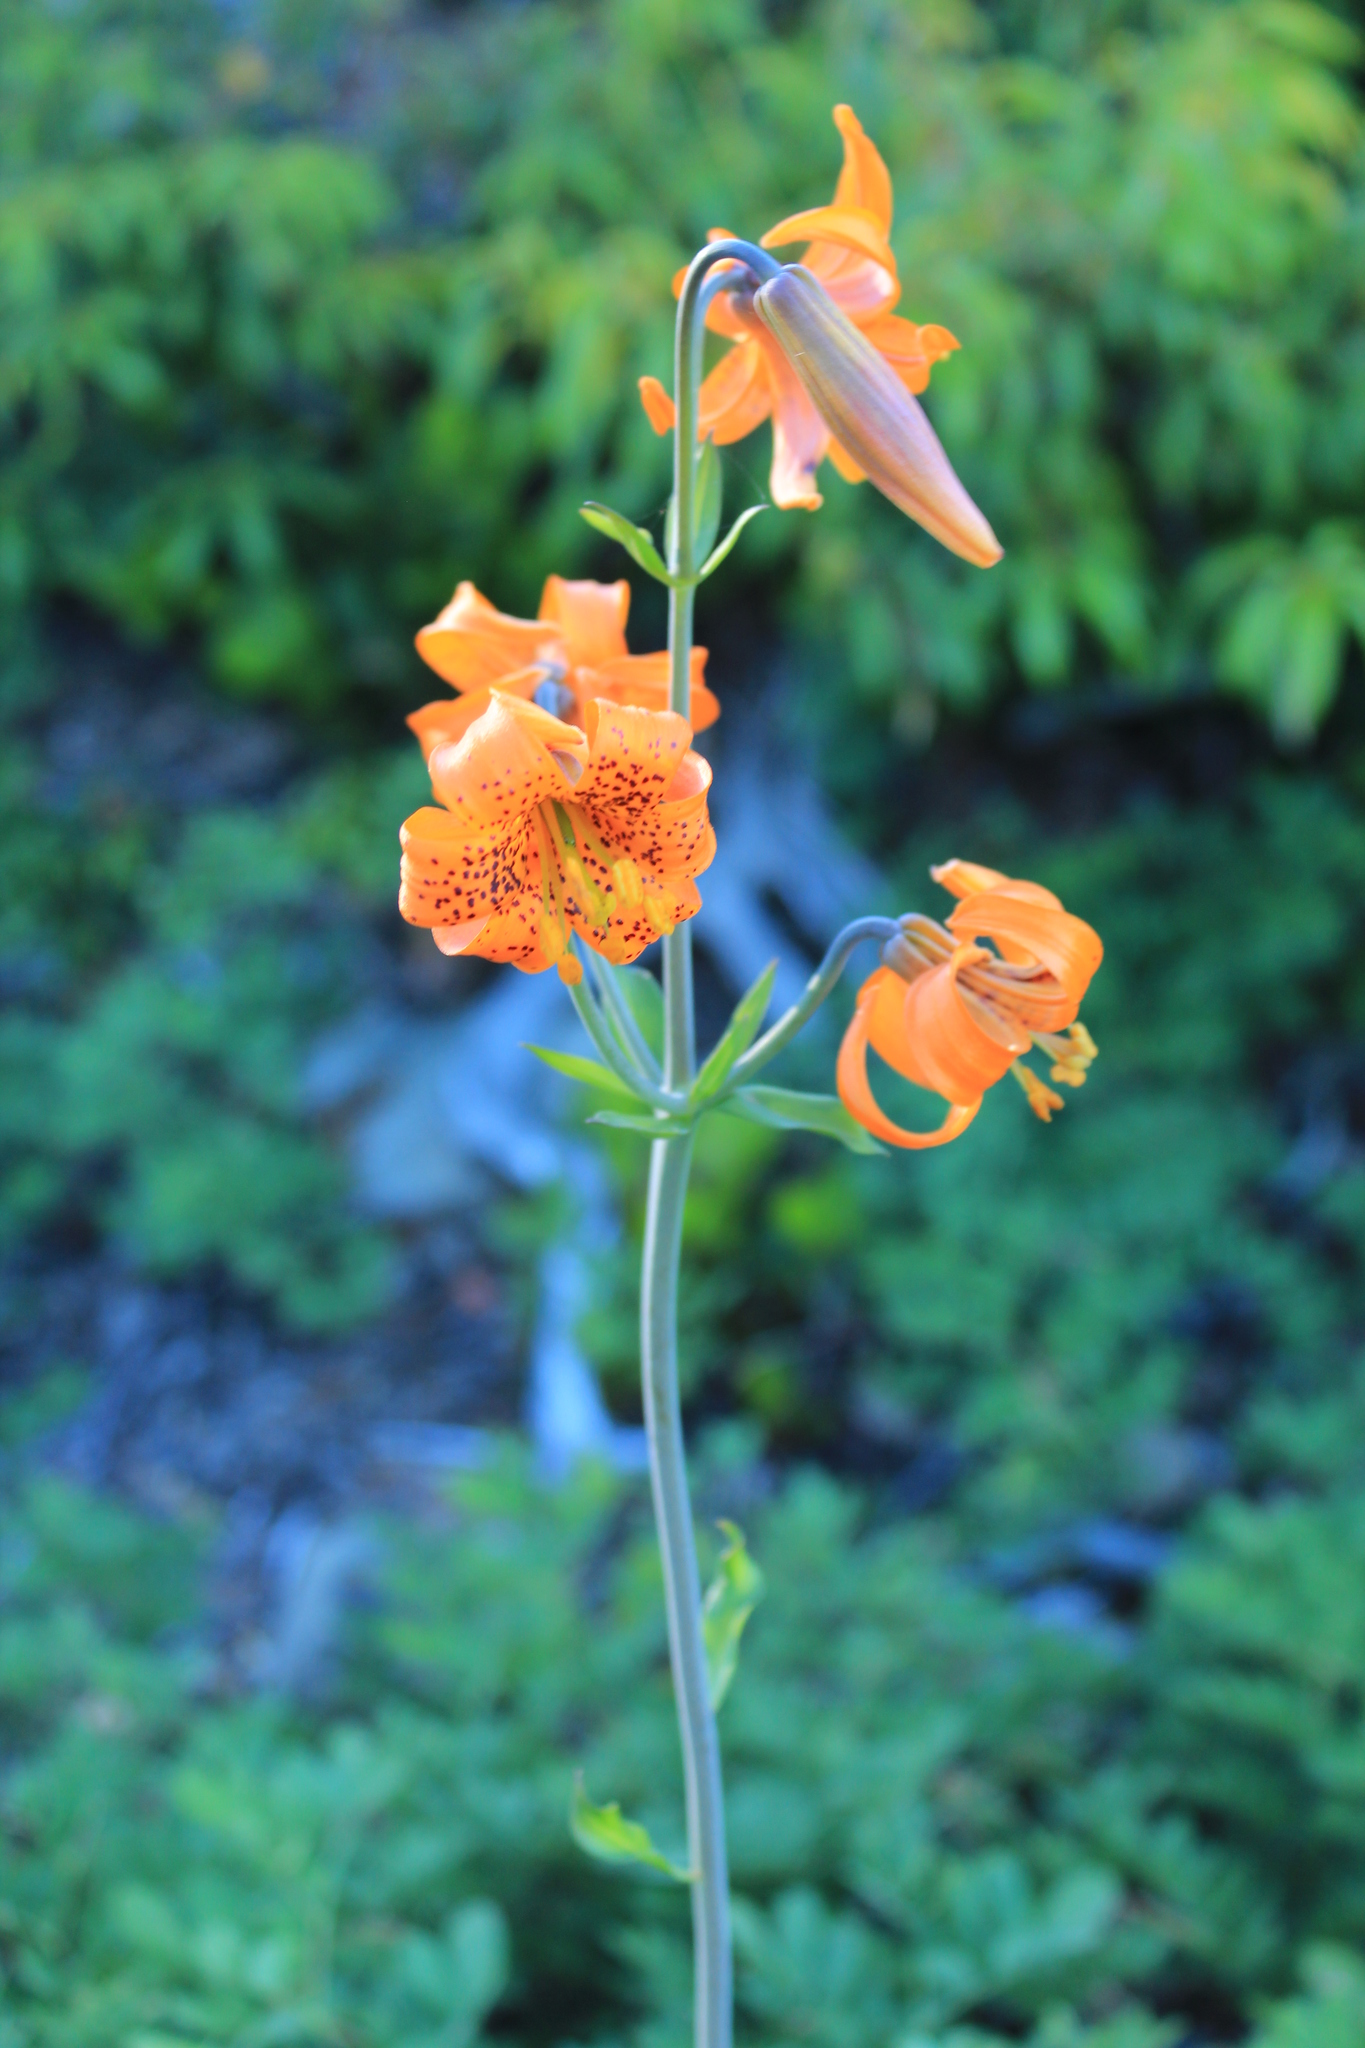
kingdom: Plantae
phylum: Tracheophyta
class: Liliopsida
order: Liliales
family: Liliaceae
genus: Lilium
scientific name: Lilium columbianum
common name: Columbia lily
